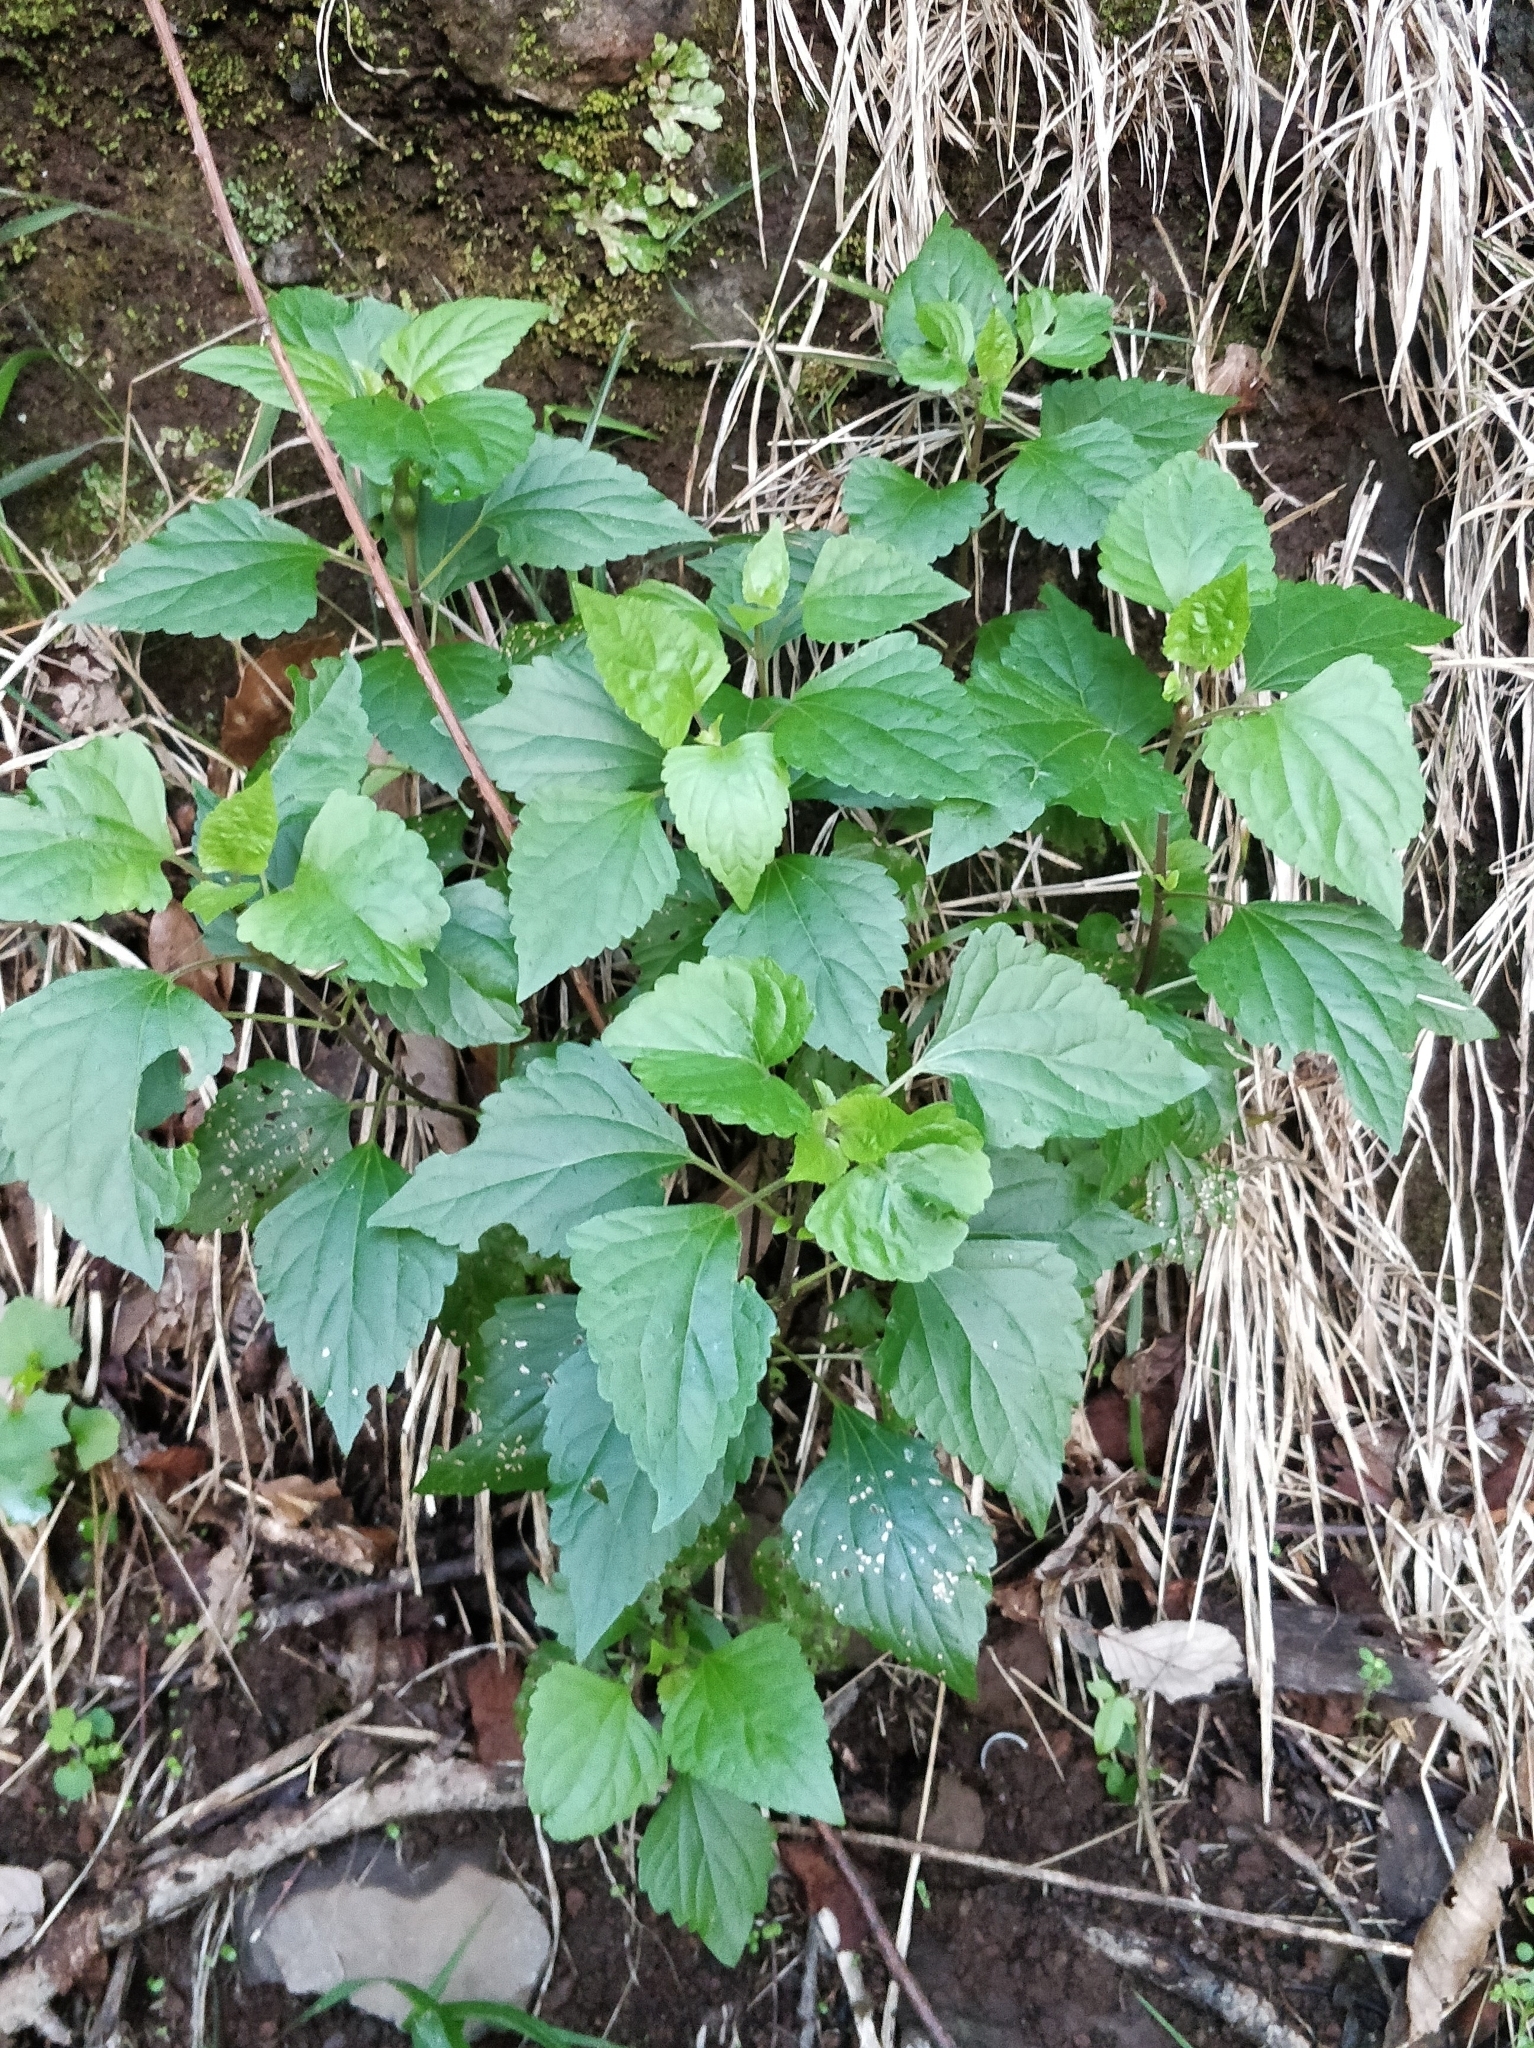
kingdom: Plantae
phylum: Tracheophyta
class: Magnoliopsida
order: Asterales
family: Asteraceae
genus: Ageratina
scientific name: Ageratina adenophora
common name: Sticky snakeroot
